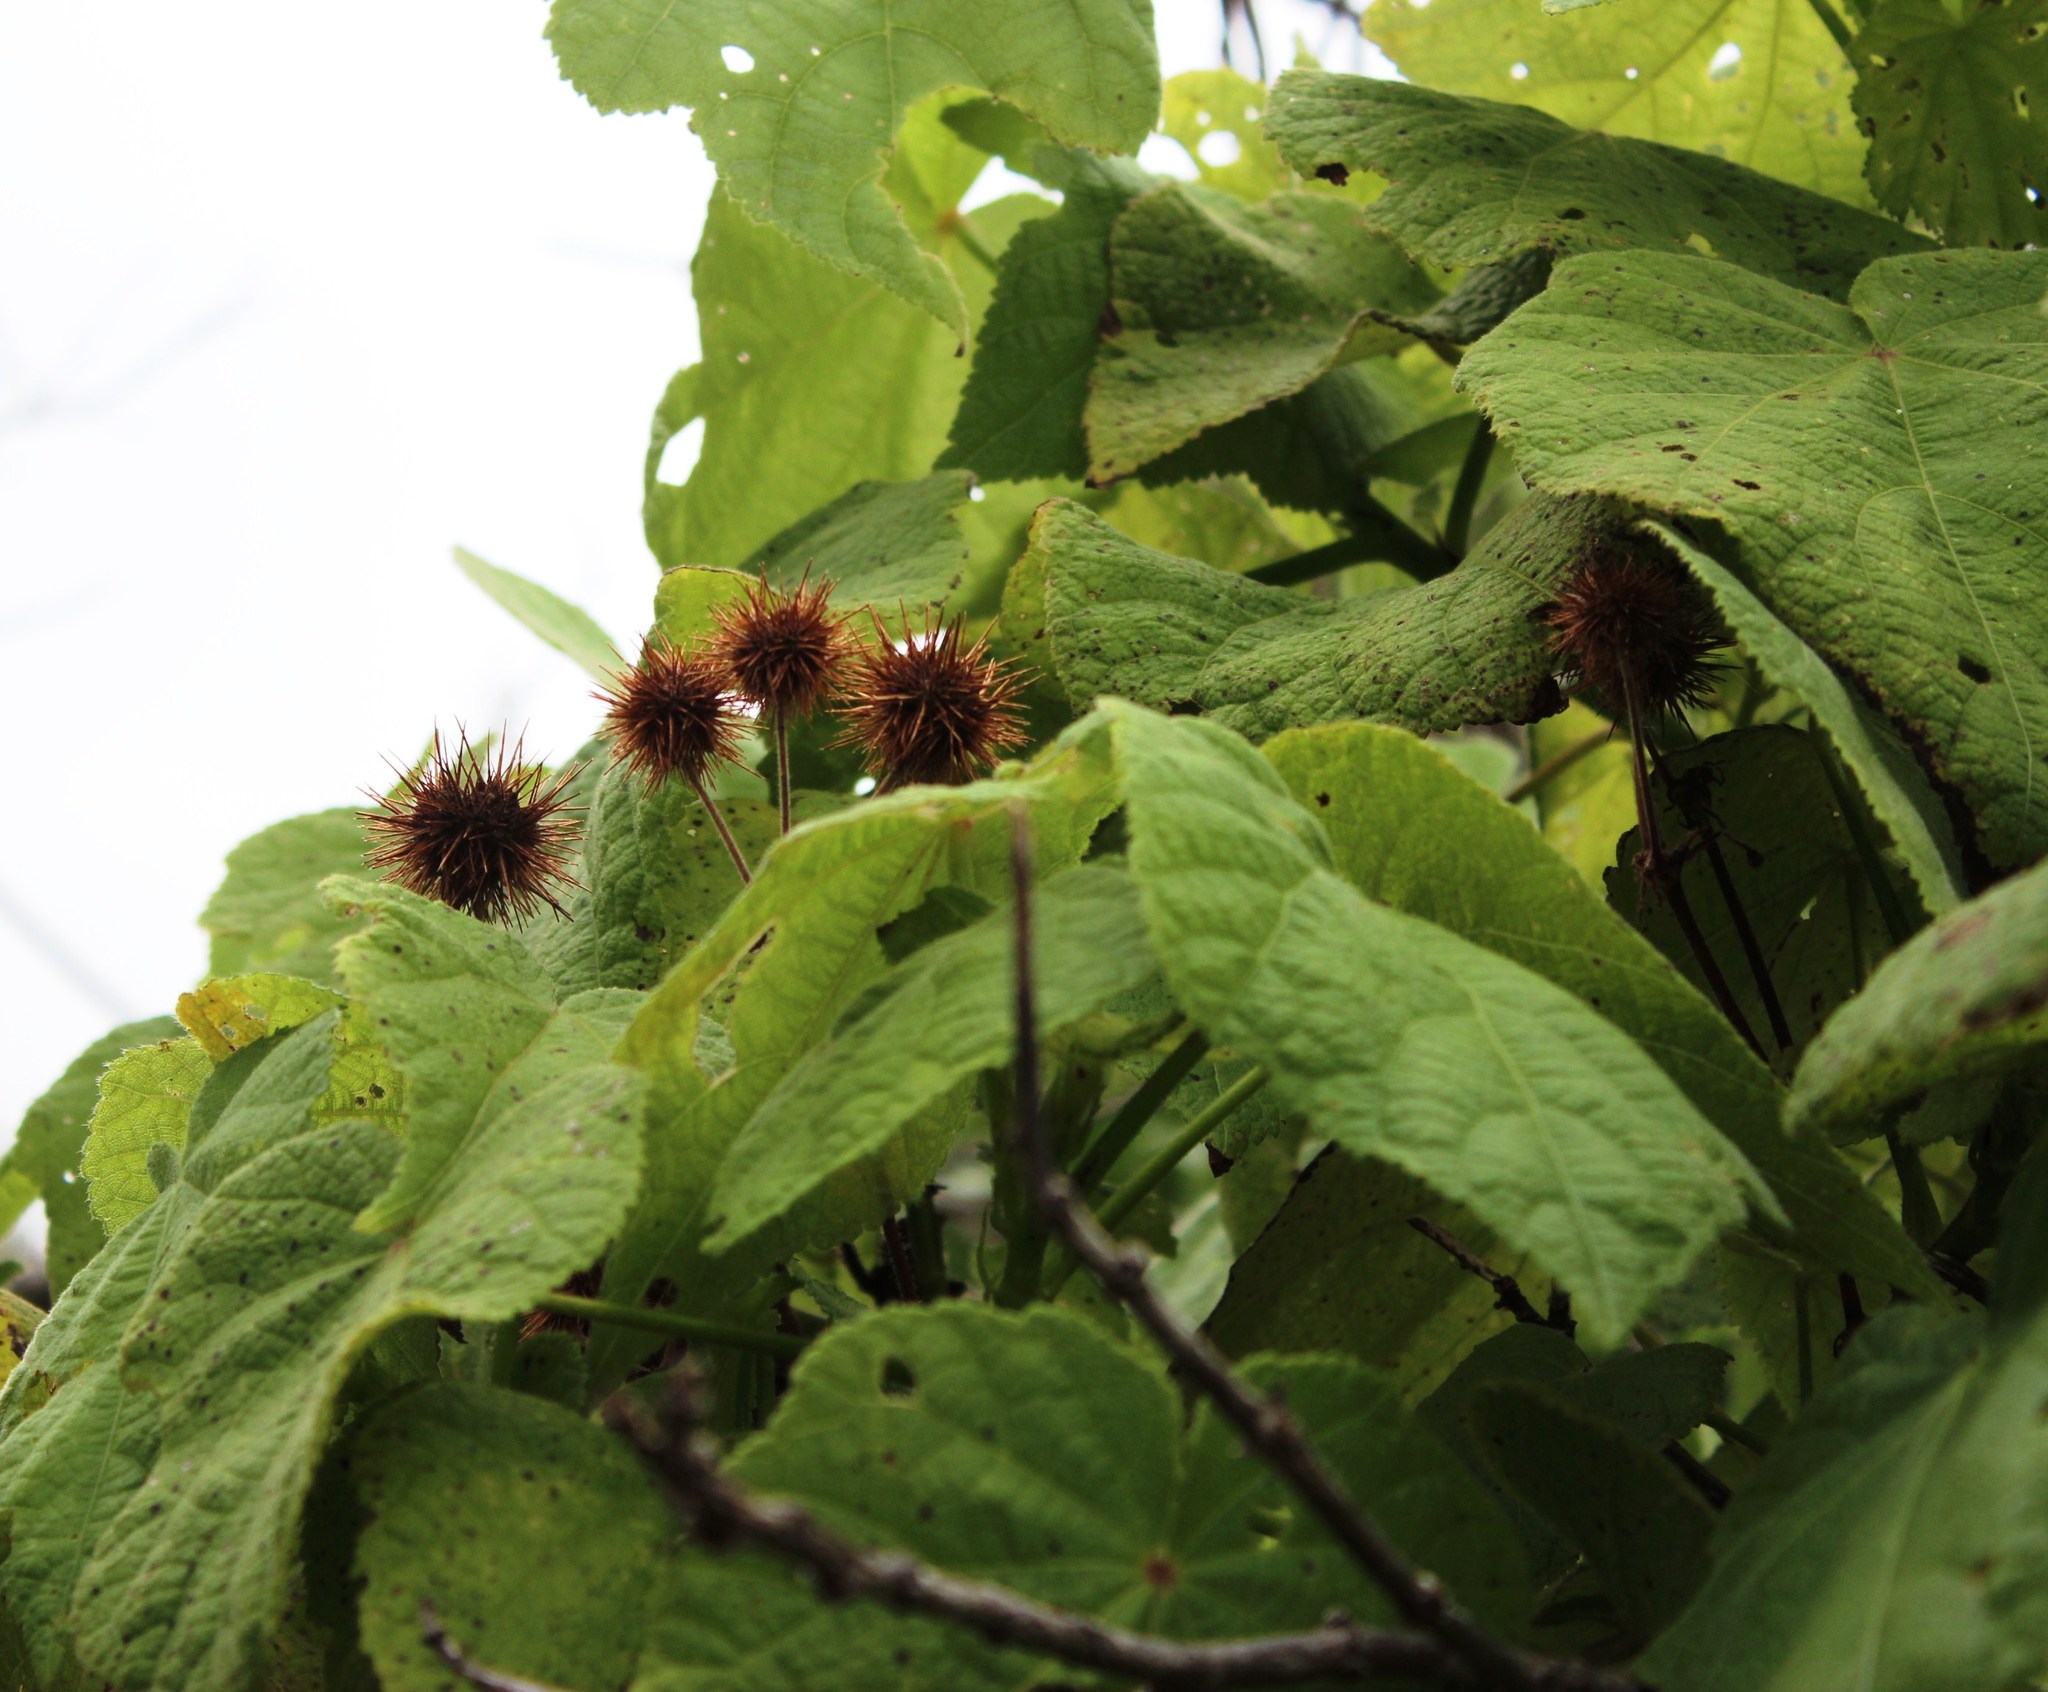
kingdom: Plantae
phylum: Tracheophyta
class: Magnoliopsida
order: Malvales
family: Malvaceae
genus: Sparrmannia
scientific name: Sparrmannia africana
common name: African-hemp
